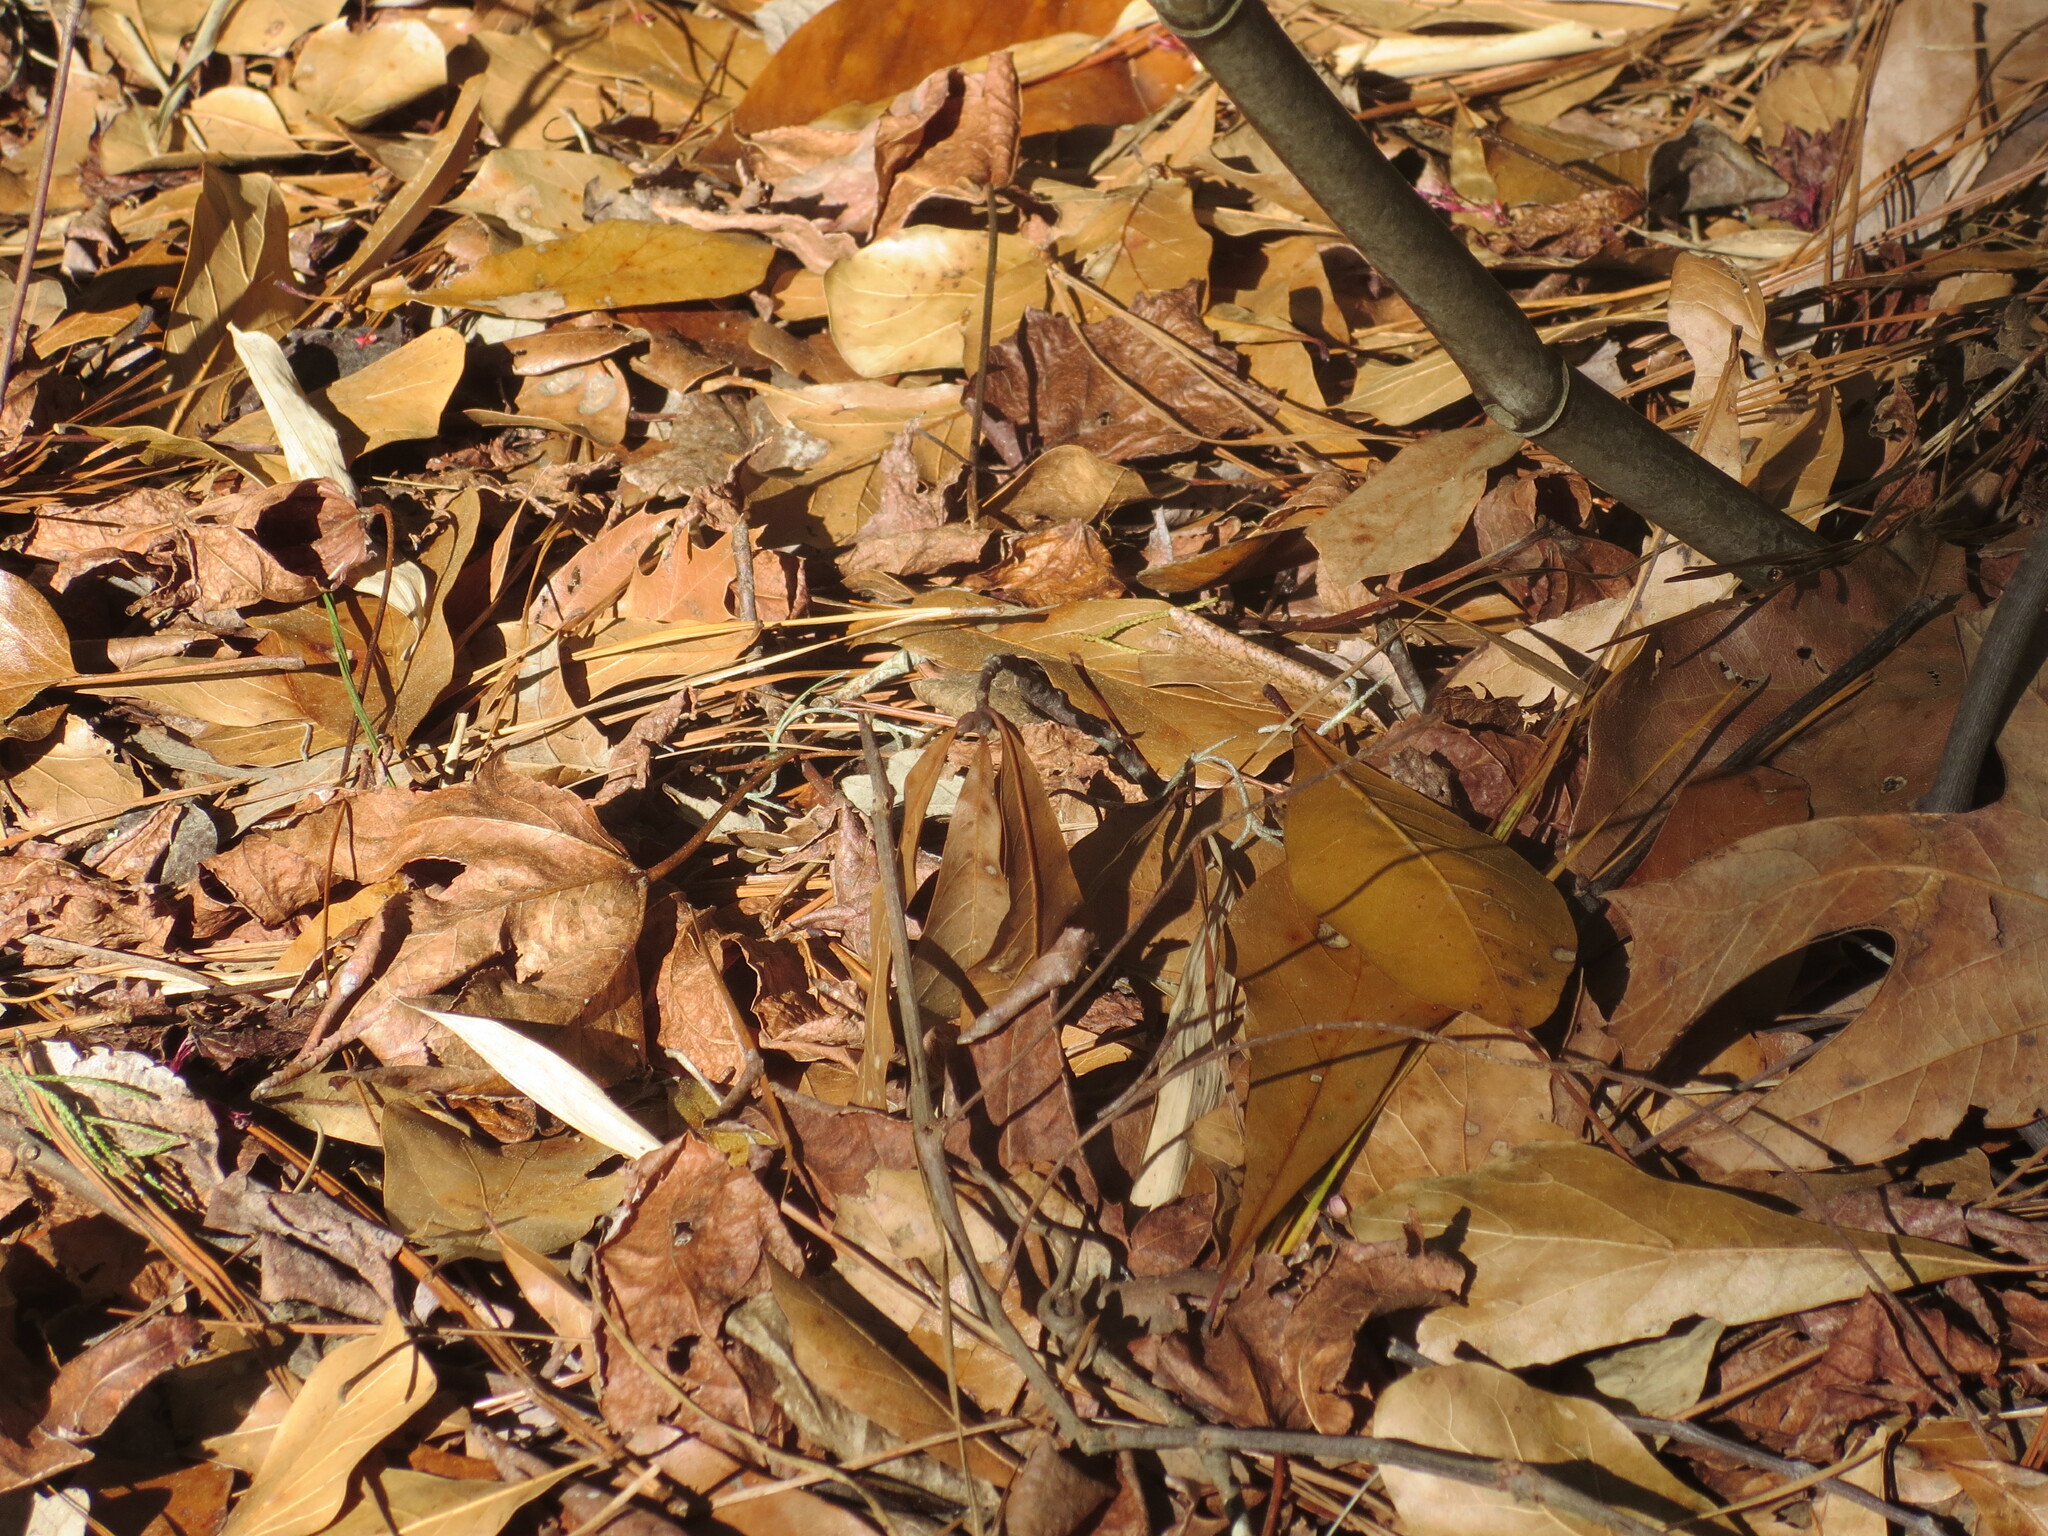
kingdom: Plantae
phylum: Tracheophyta
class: Magnoliopsida
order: Fagales
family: Fagaceae
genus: Quercus
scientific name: Quercus nigra
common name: Water oak
